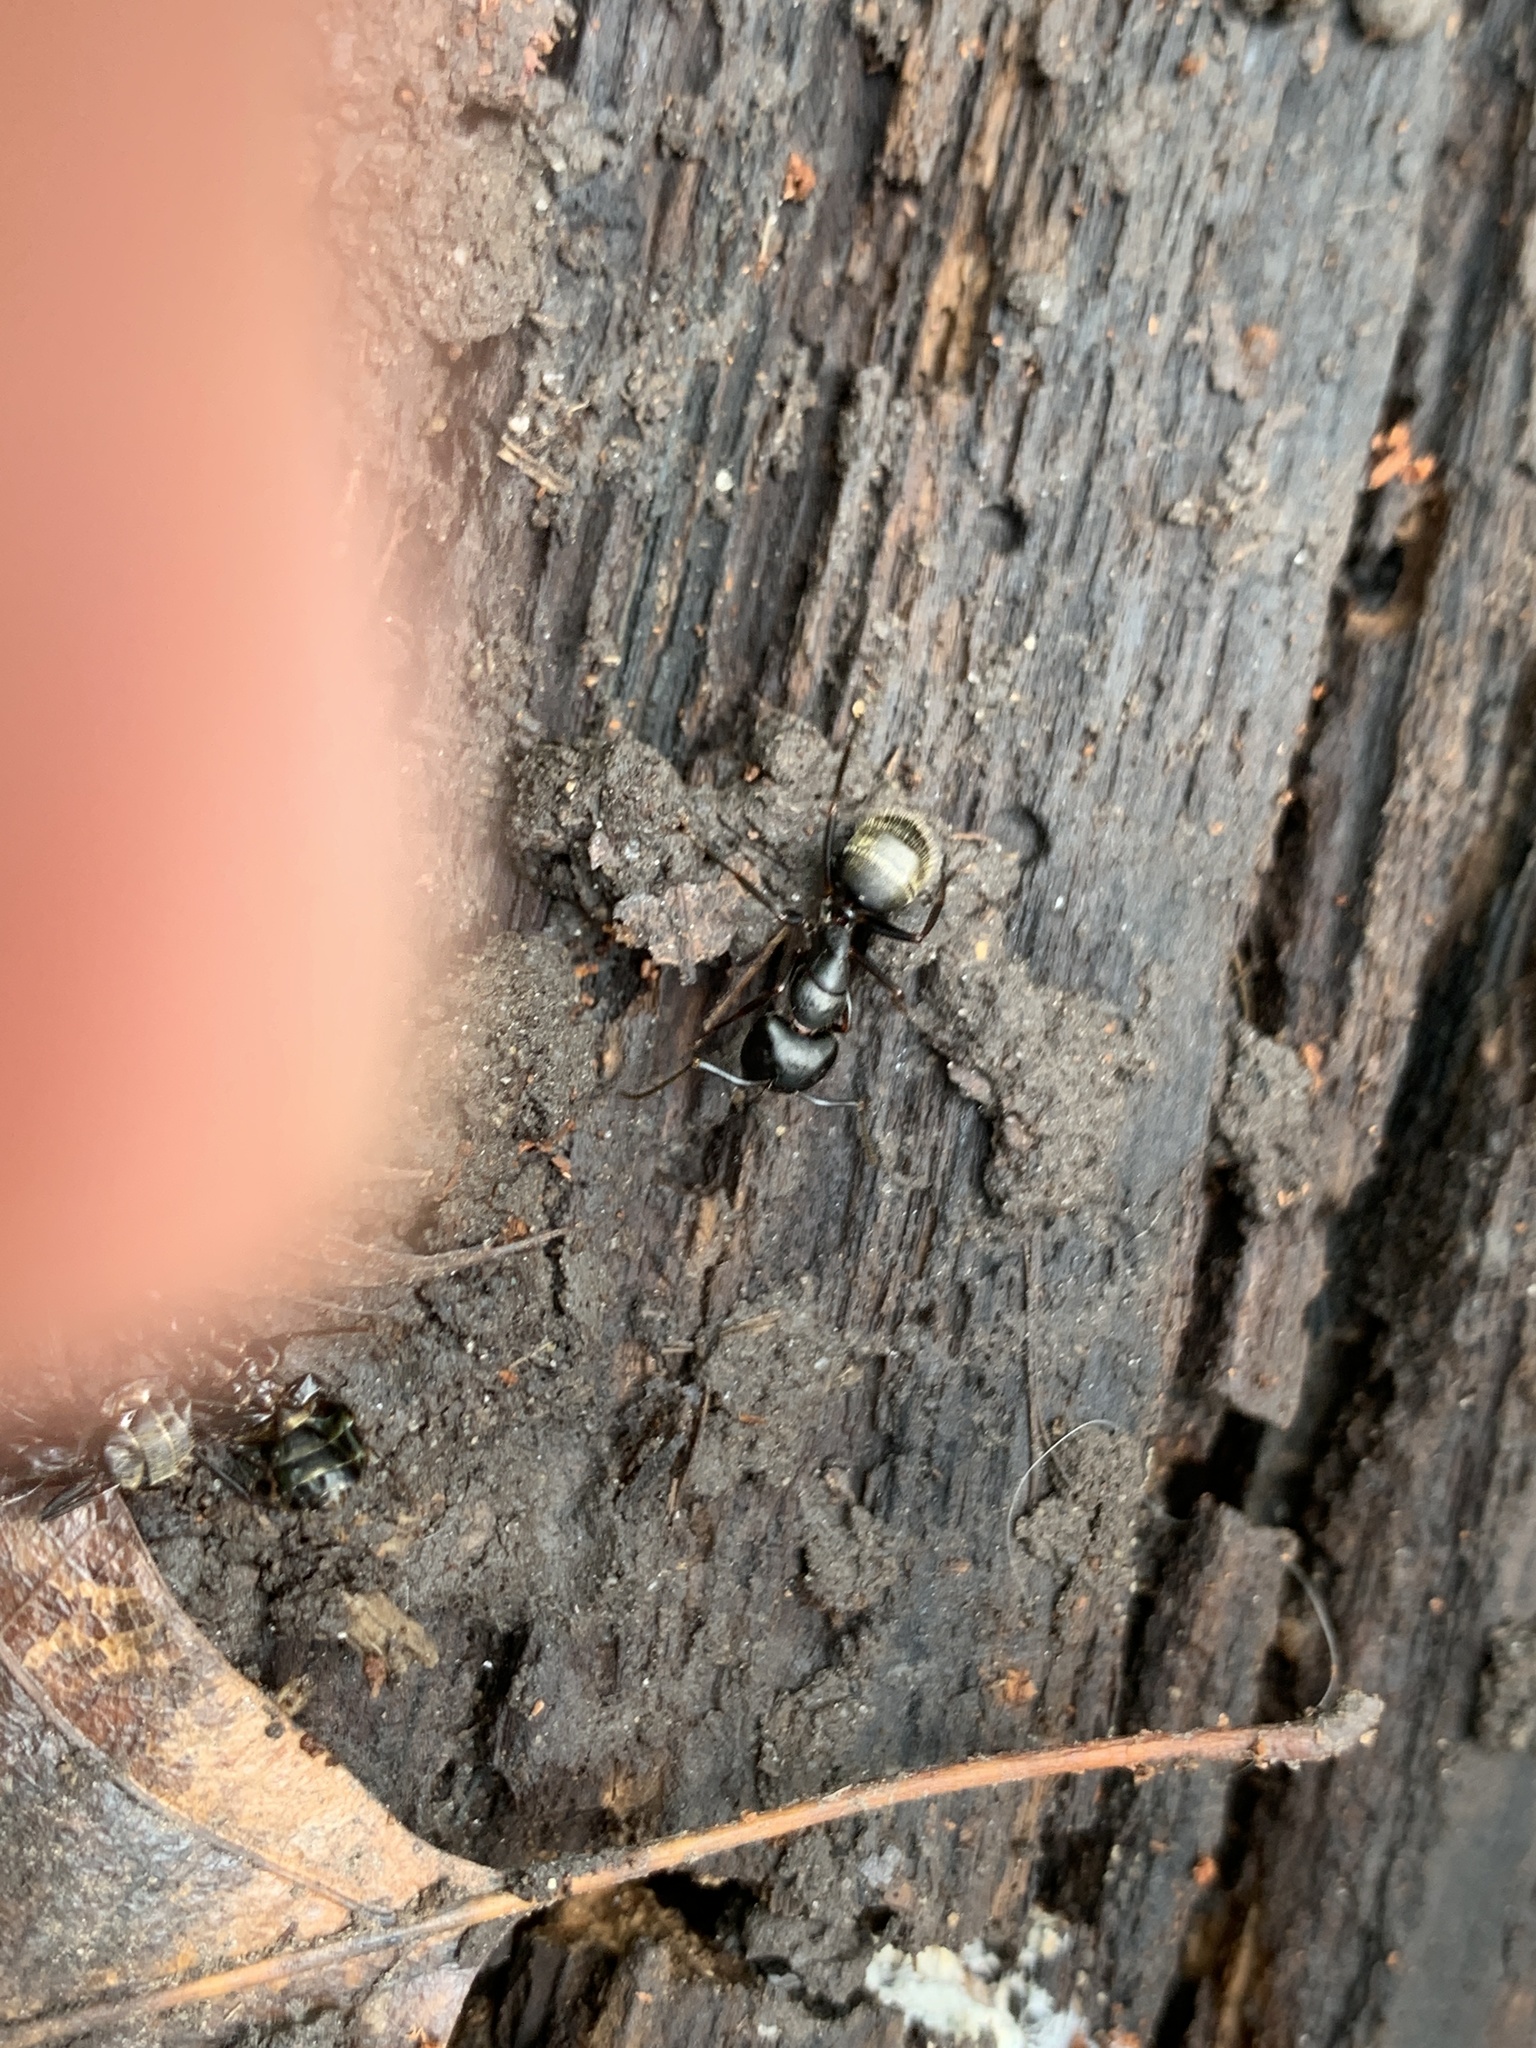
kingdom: Animalia
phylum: Arthropoda
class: Insecta
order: Hymenoptera
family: Formicidae
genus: Camponotus
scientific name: Camponotus pennsylvanicus
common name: Black carpenter ant
